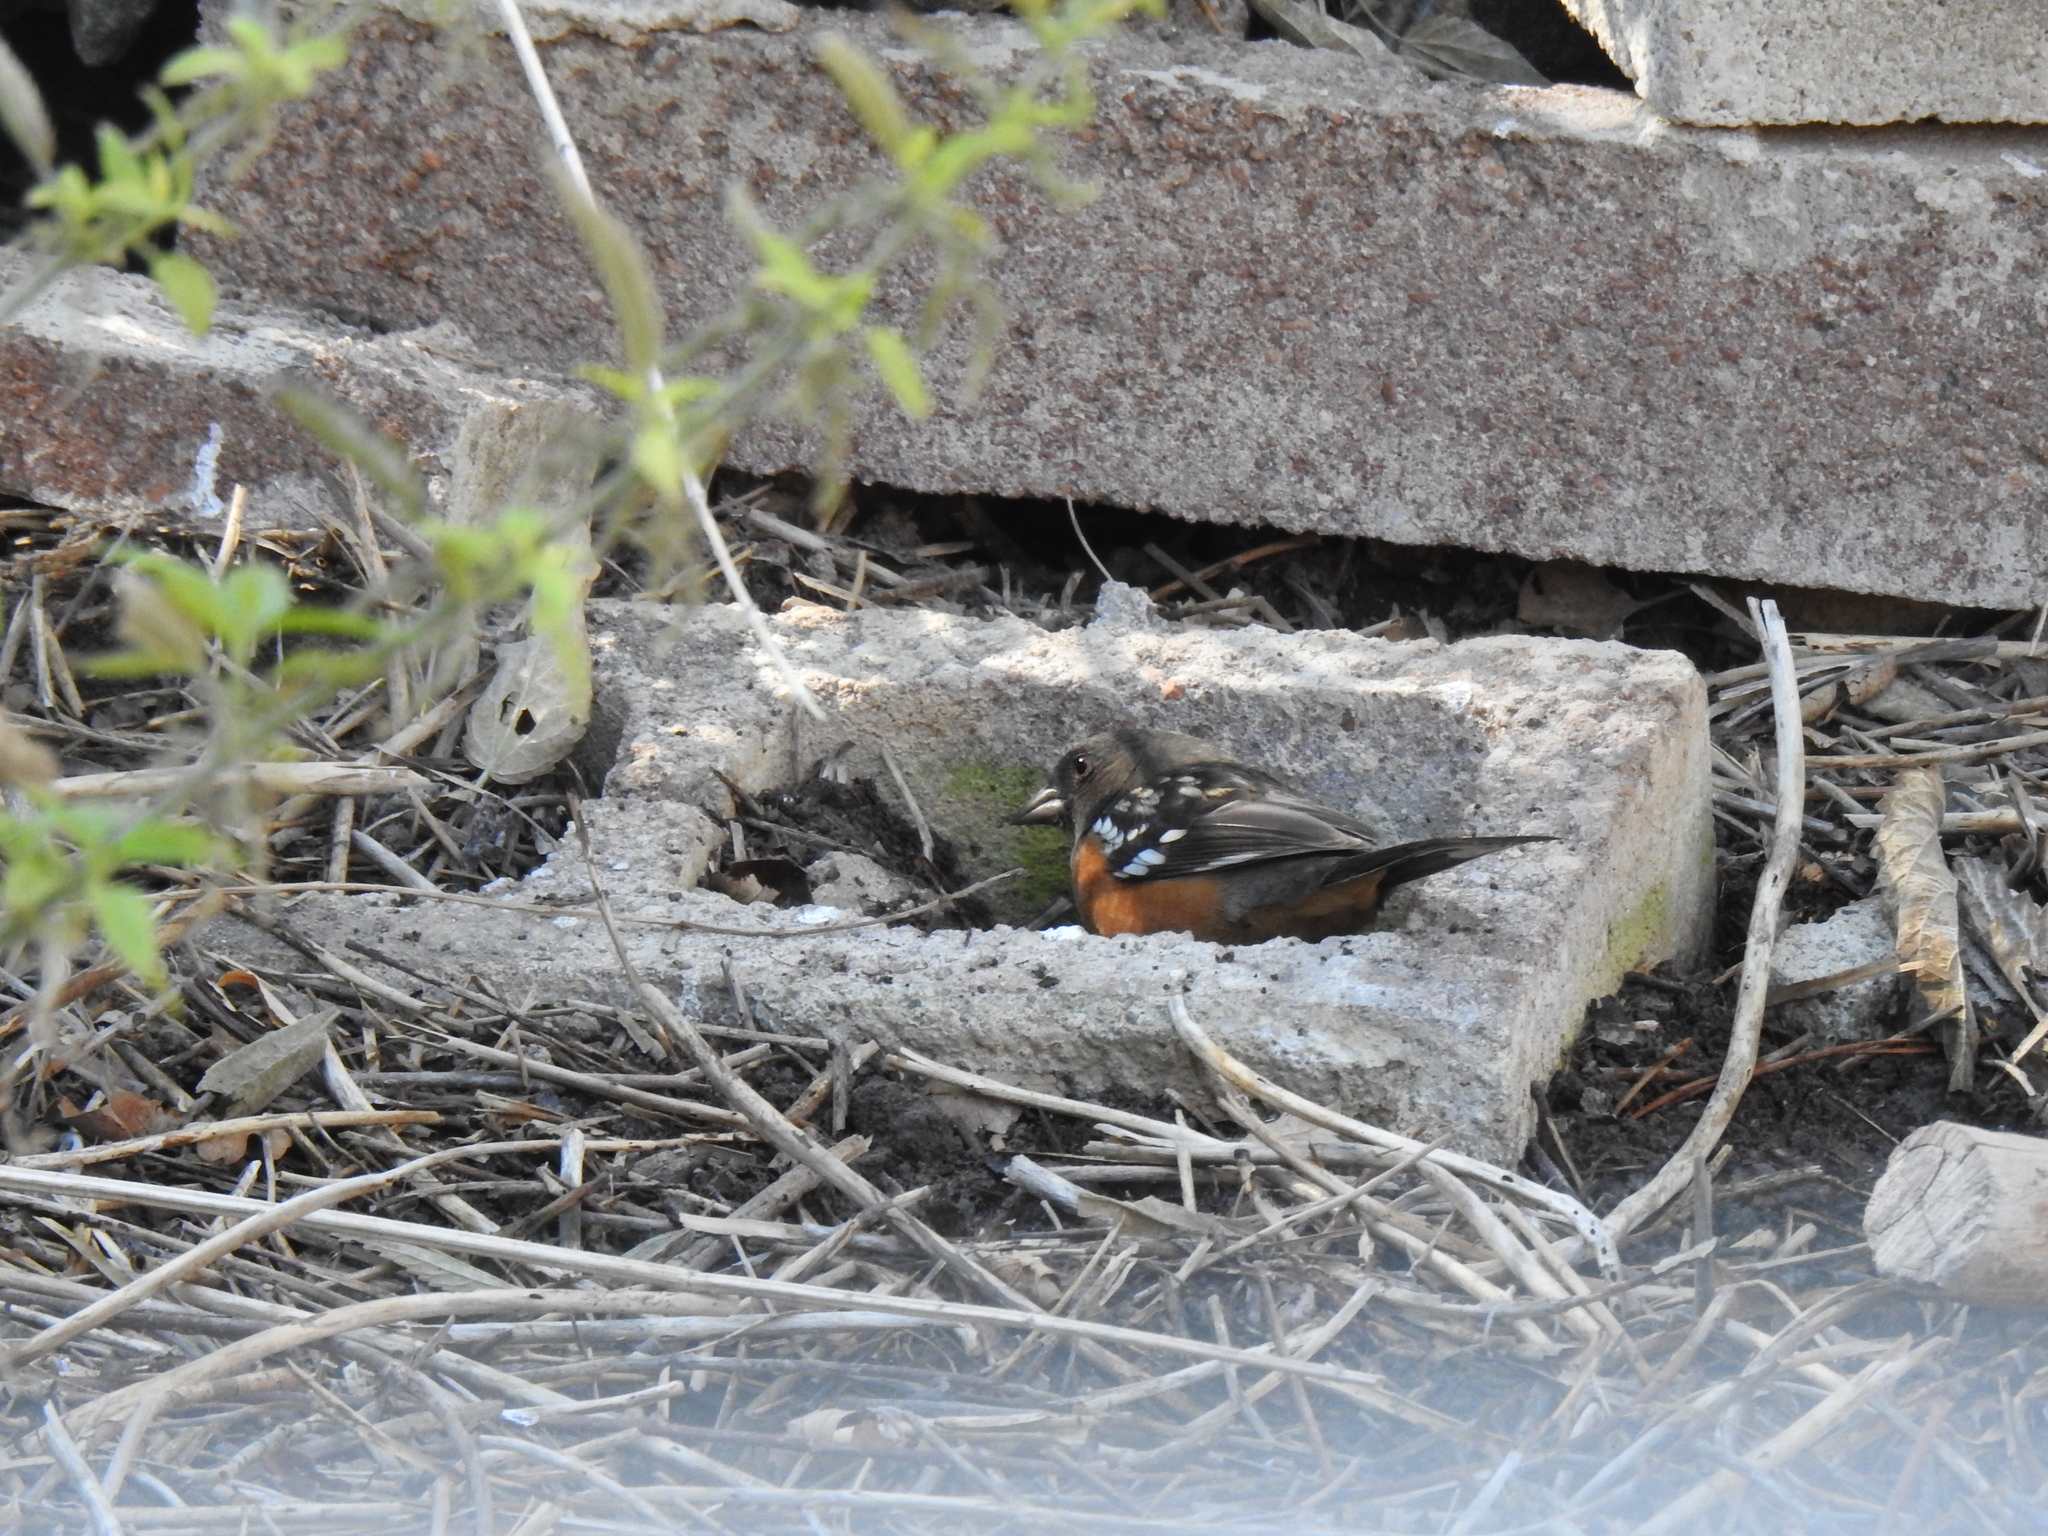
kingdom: Animalia
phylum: Chordata
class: Aves
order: Passeriformes
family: Passerellidae
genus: Pipilo
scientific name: Pipilo maculatus
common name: Spotted towhee
